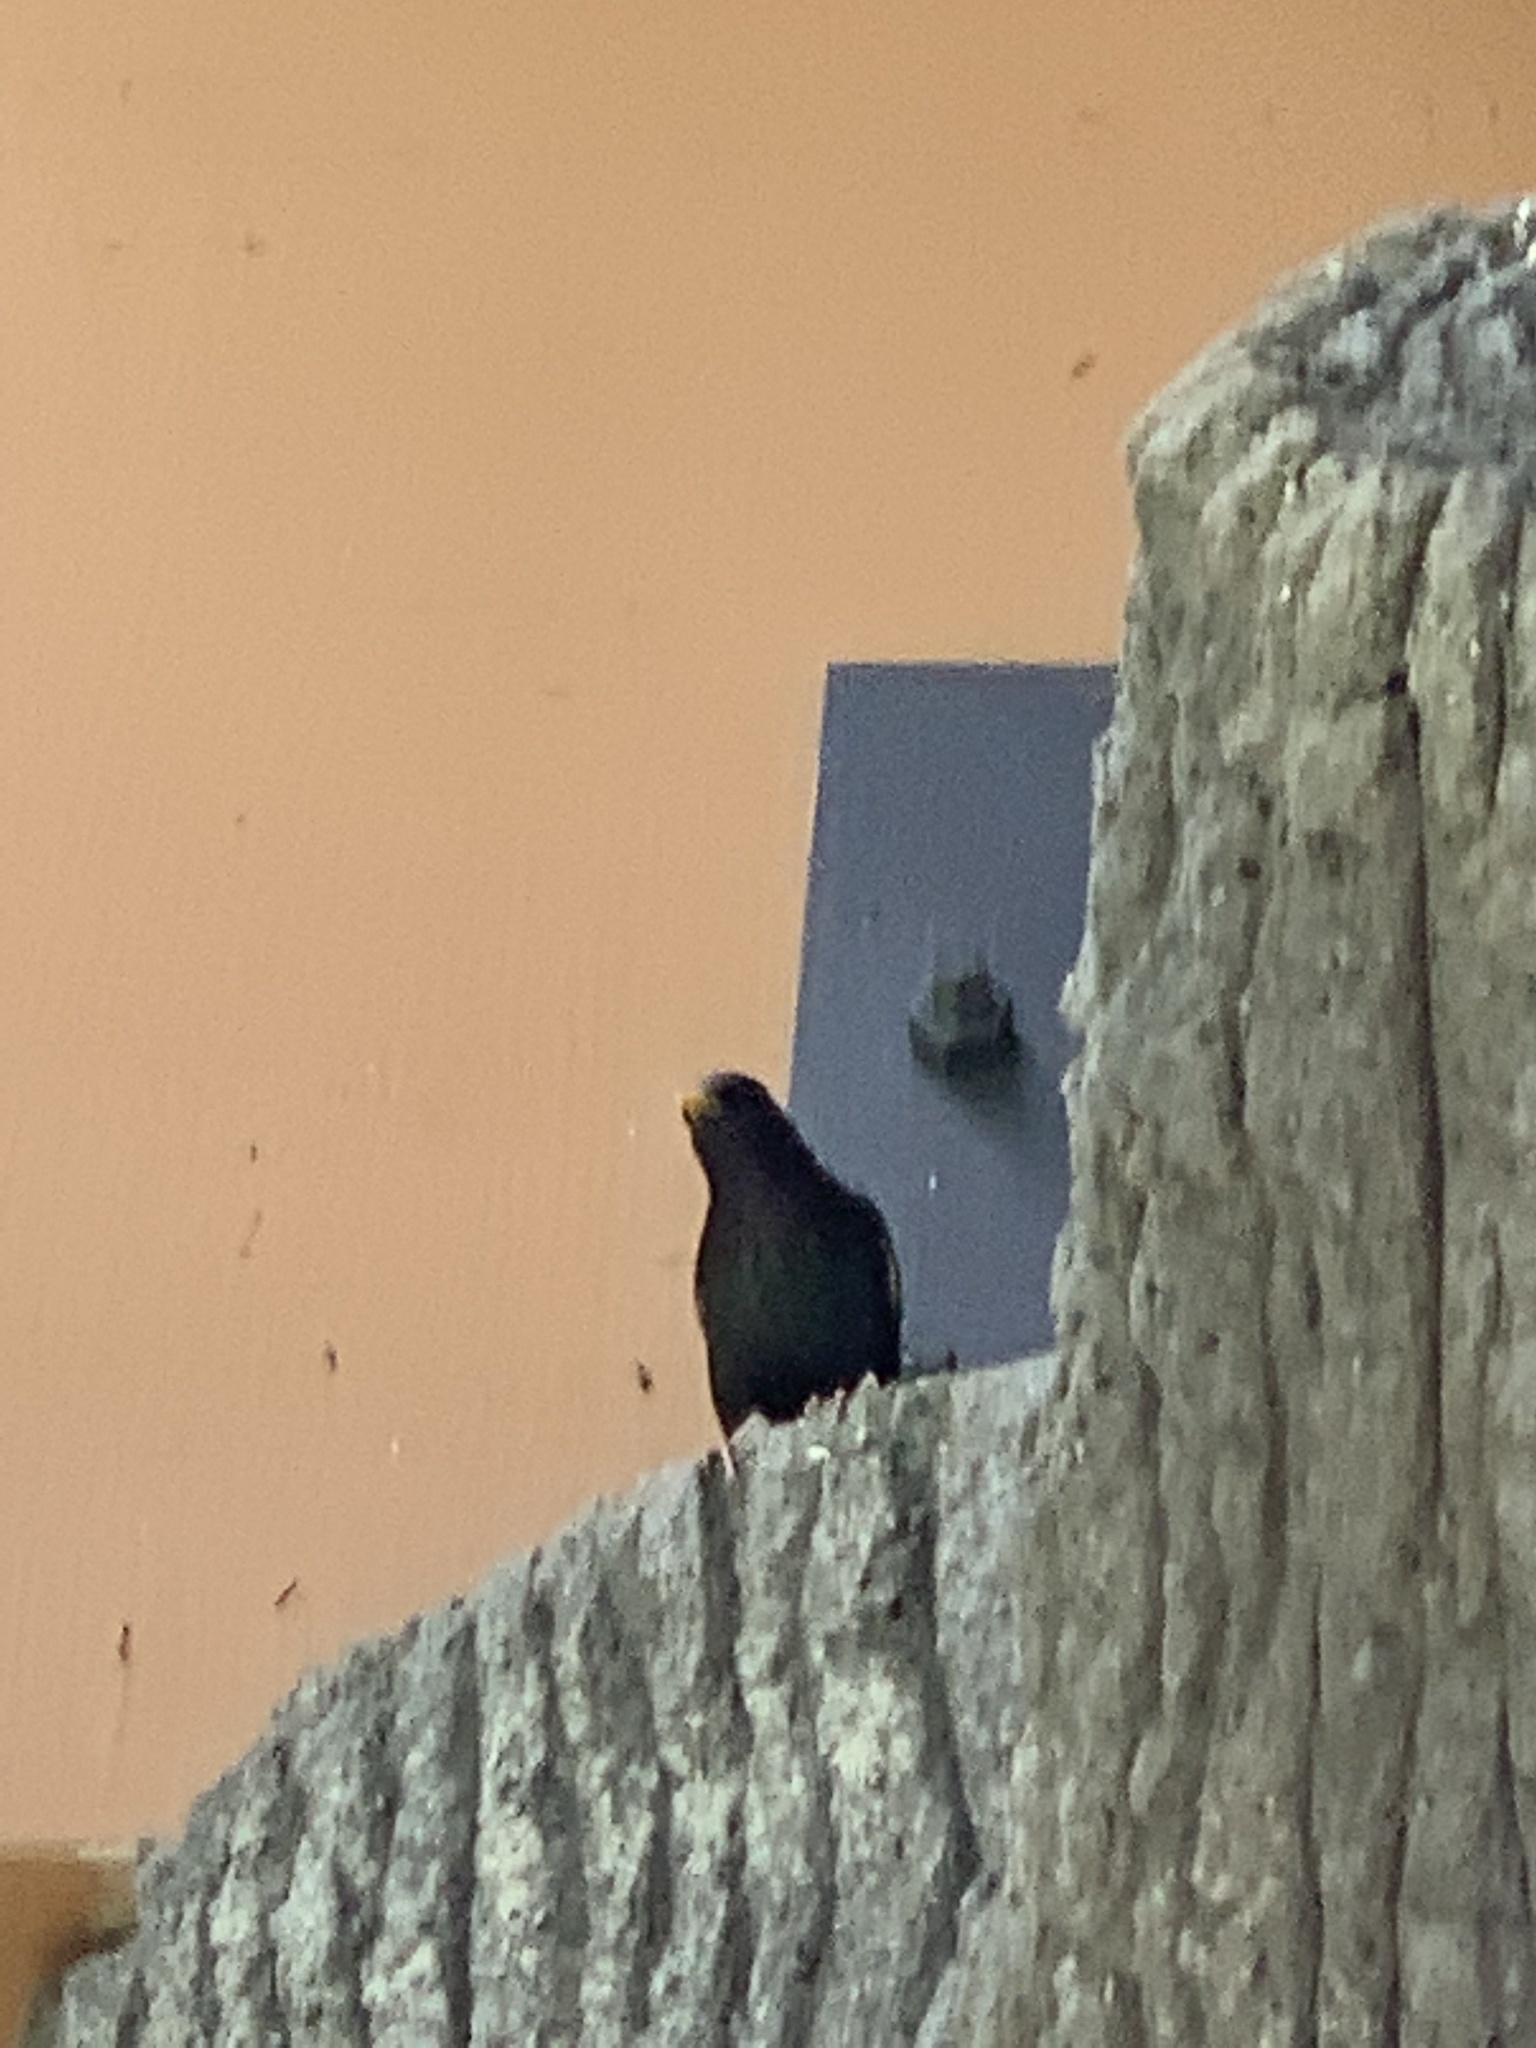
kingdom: Animalia
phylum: Chordata
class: Aves
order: Passeriformes
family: Sturnidae
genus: Sturnus
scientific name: Sturnus vulgaris
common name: Common starling
